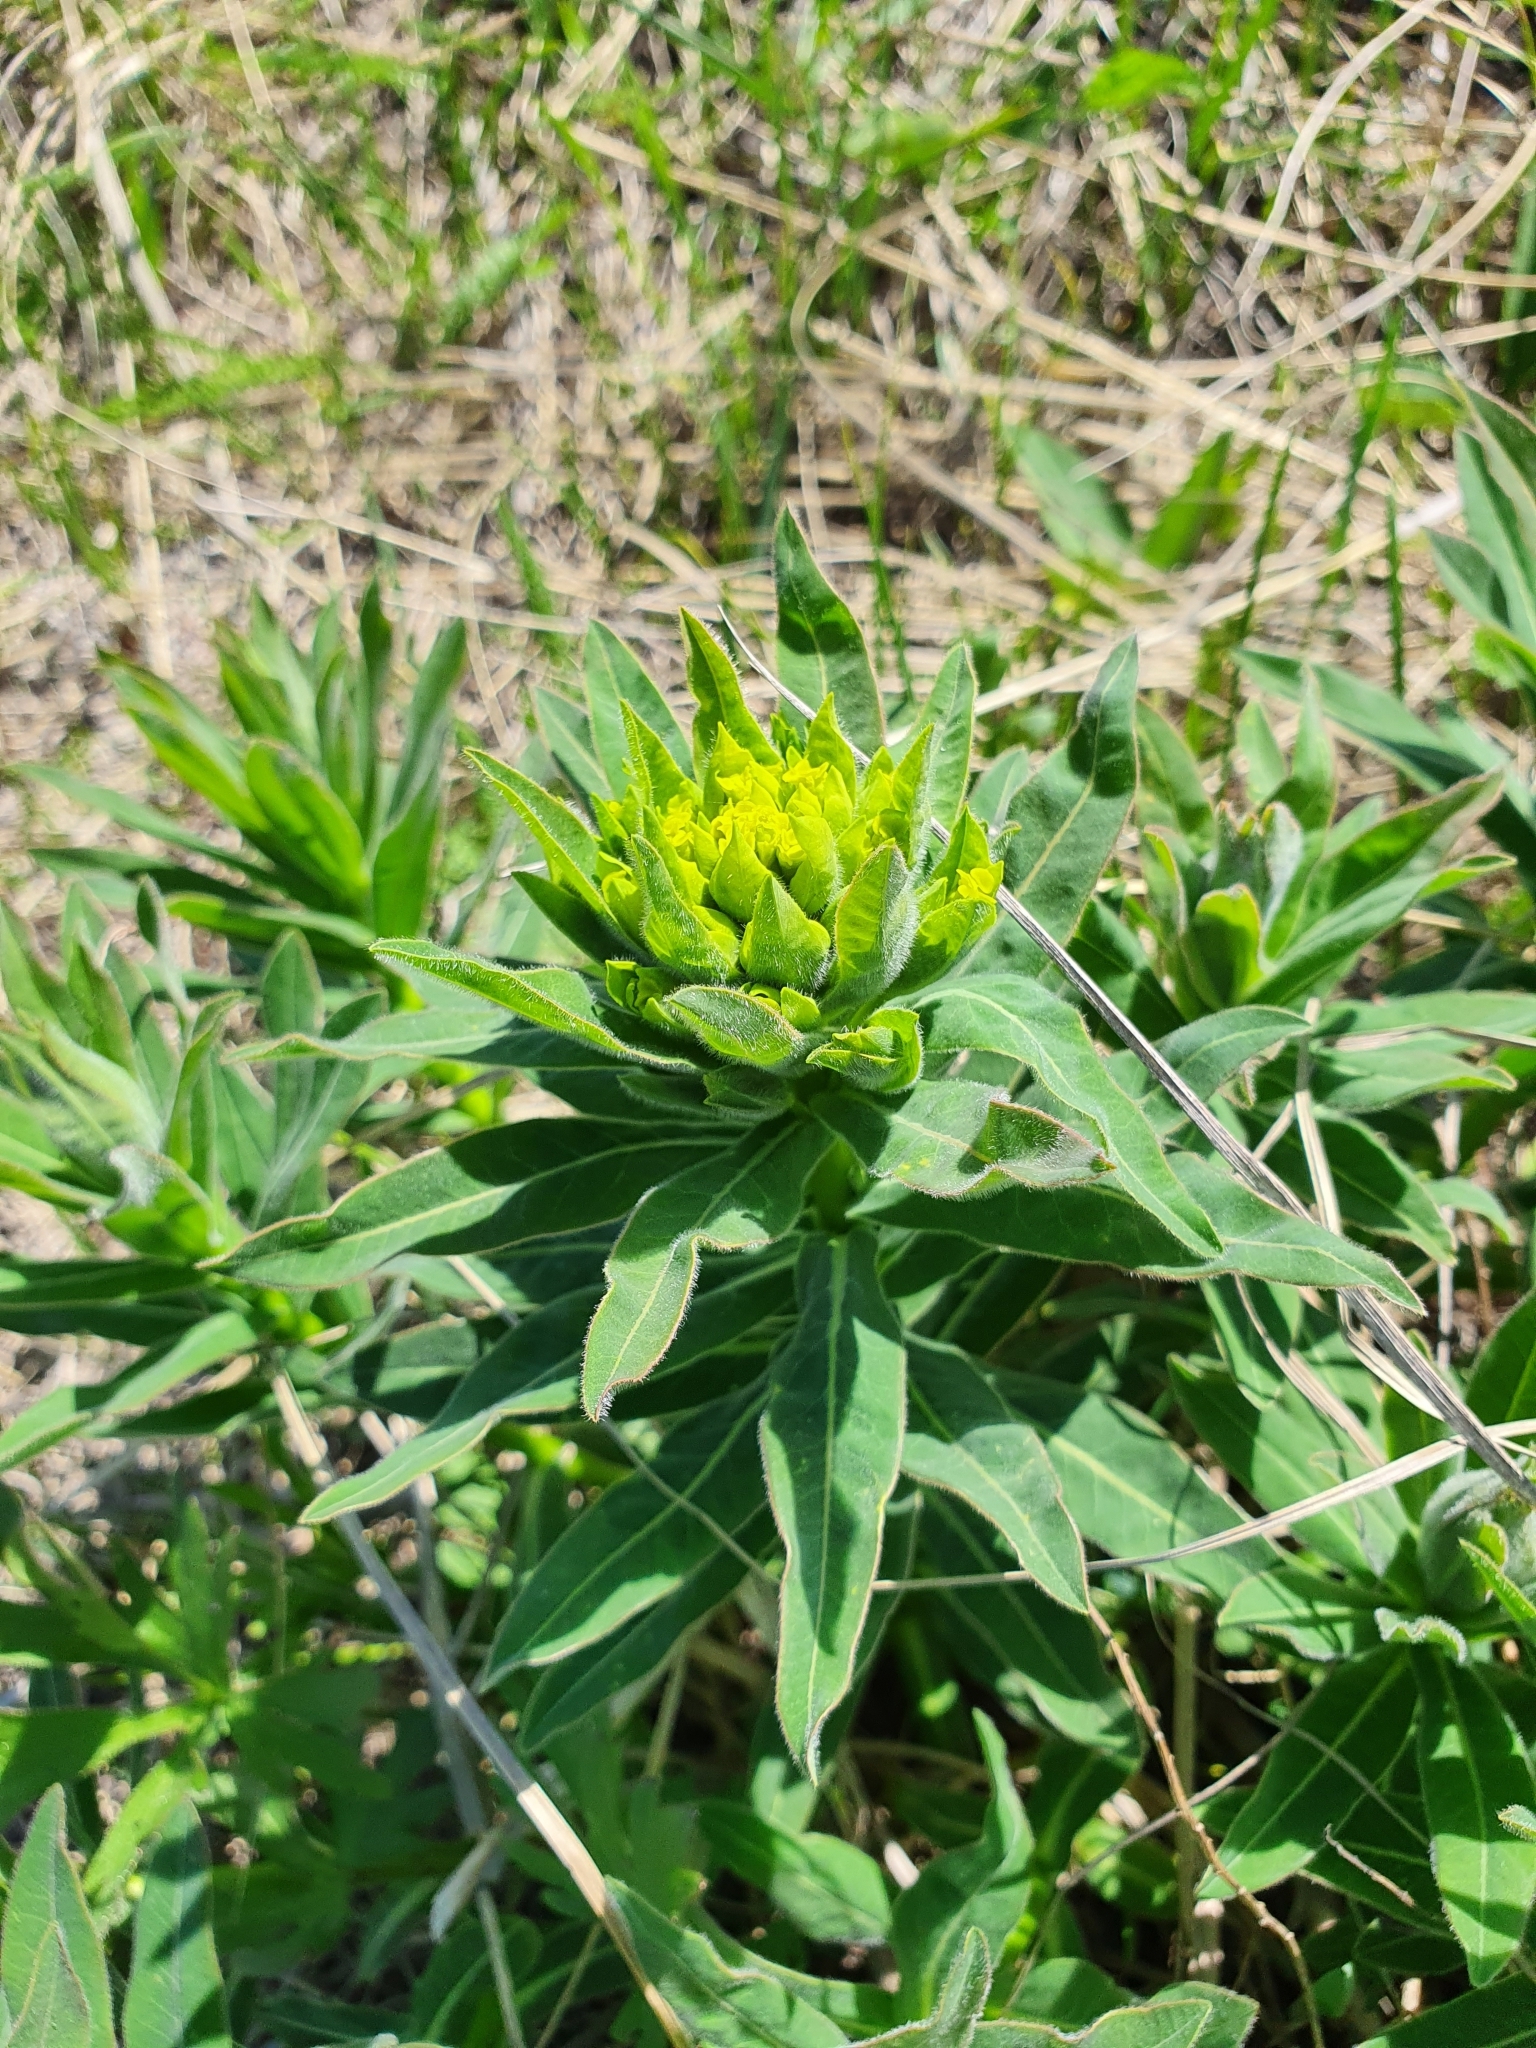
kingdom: Plantae
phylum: Tracheophyta
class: Magnoliopsida
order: Malpighiales
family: Euphorbiaceae
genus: Euphorbia
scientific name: Euphorbia semivillosa
